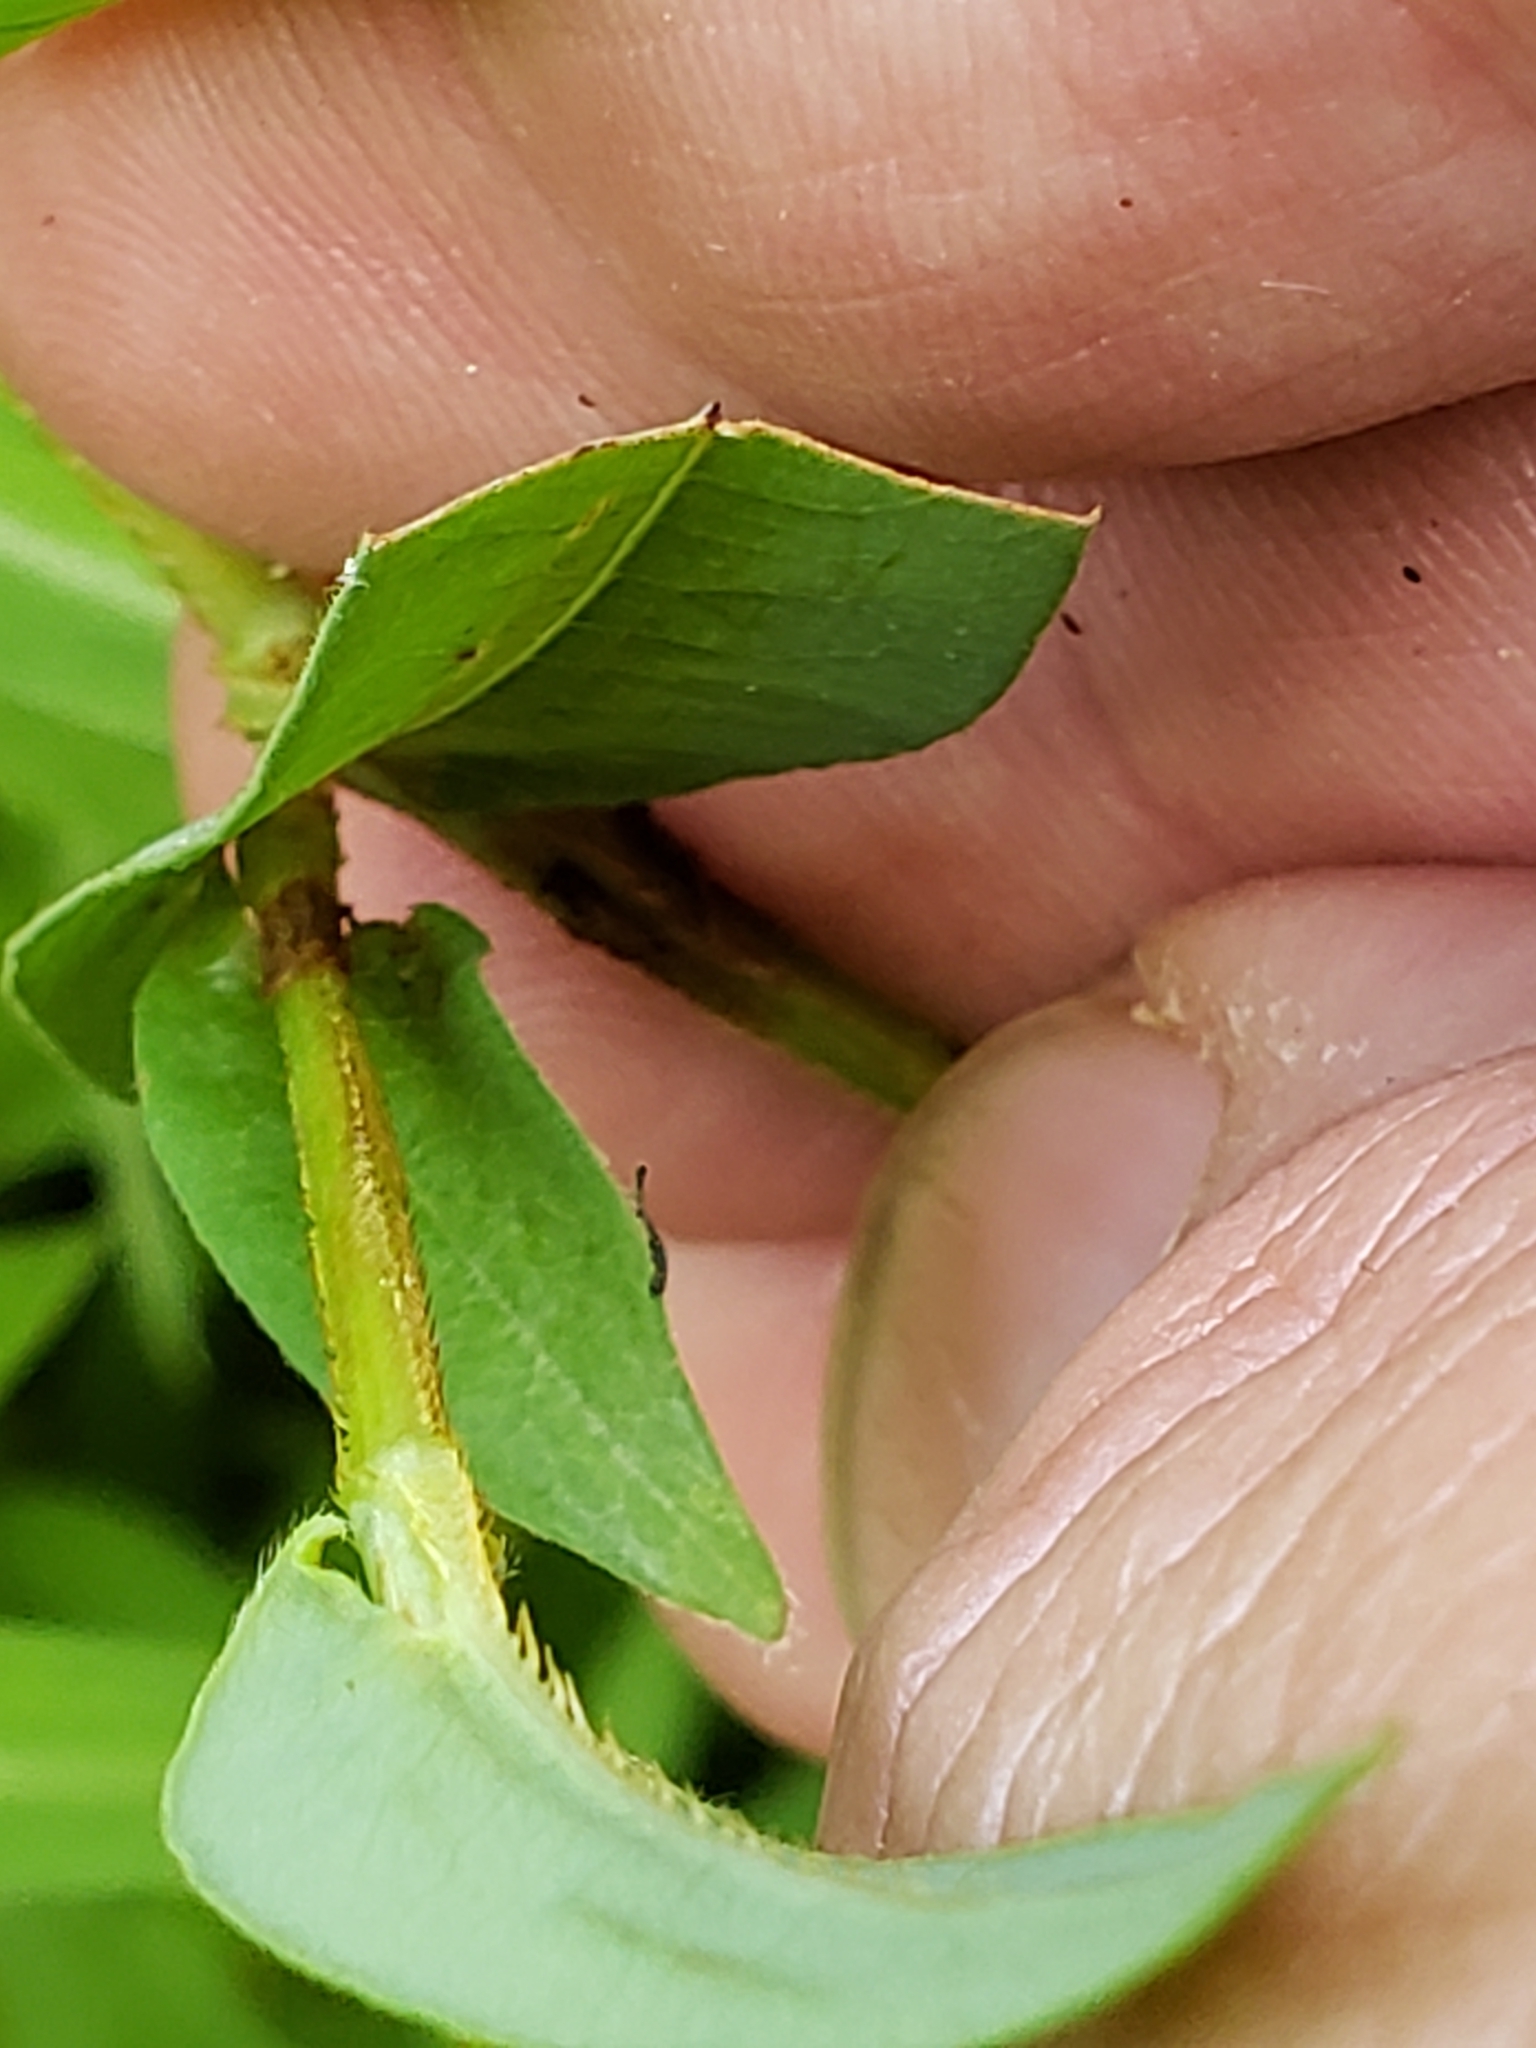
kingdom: Plantae
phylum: Tracheophyta
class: Magnoliopsida
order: Caryophyllales
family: Polygonaceae
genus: Persicaria
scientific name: Persicaria sagittata
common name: American tearthumb
